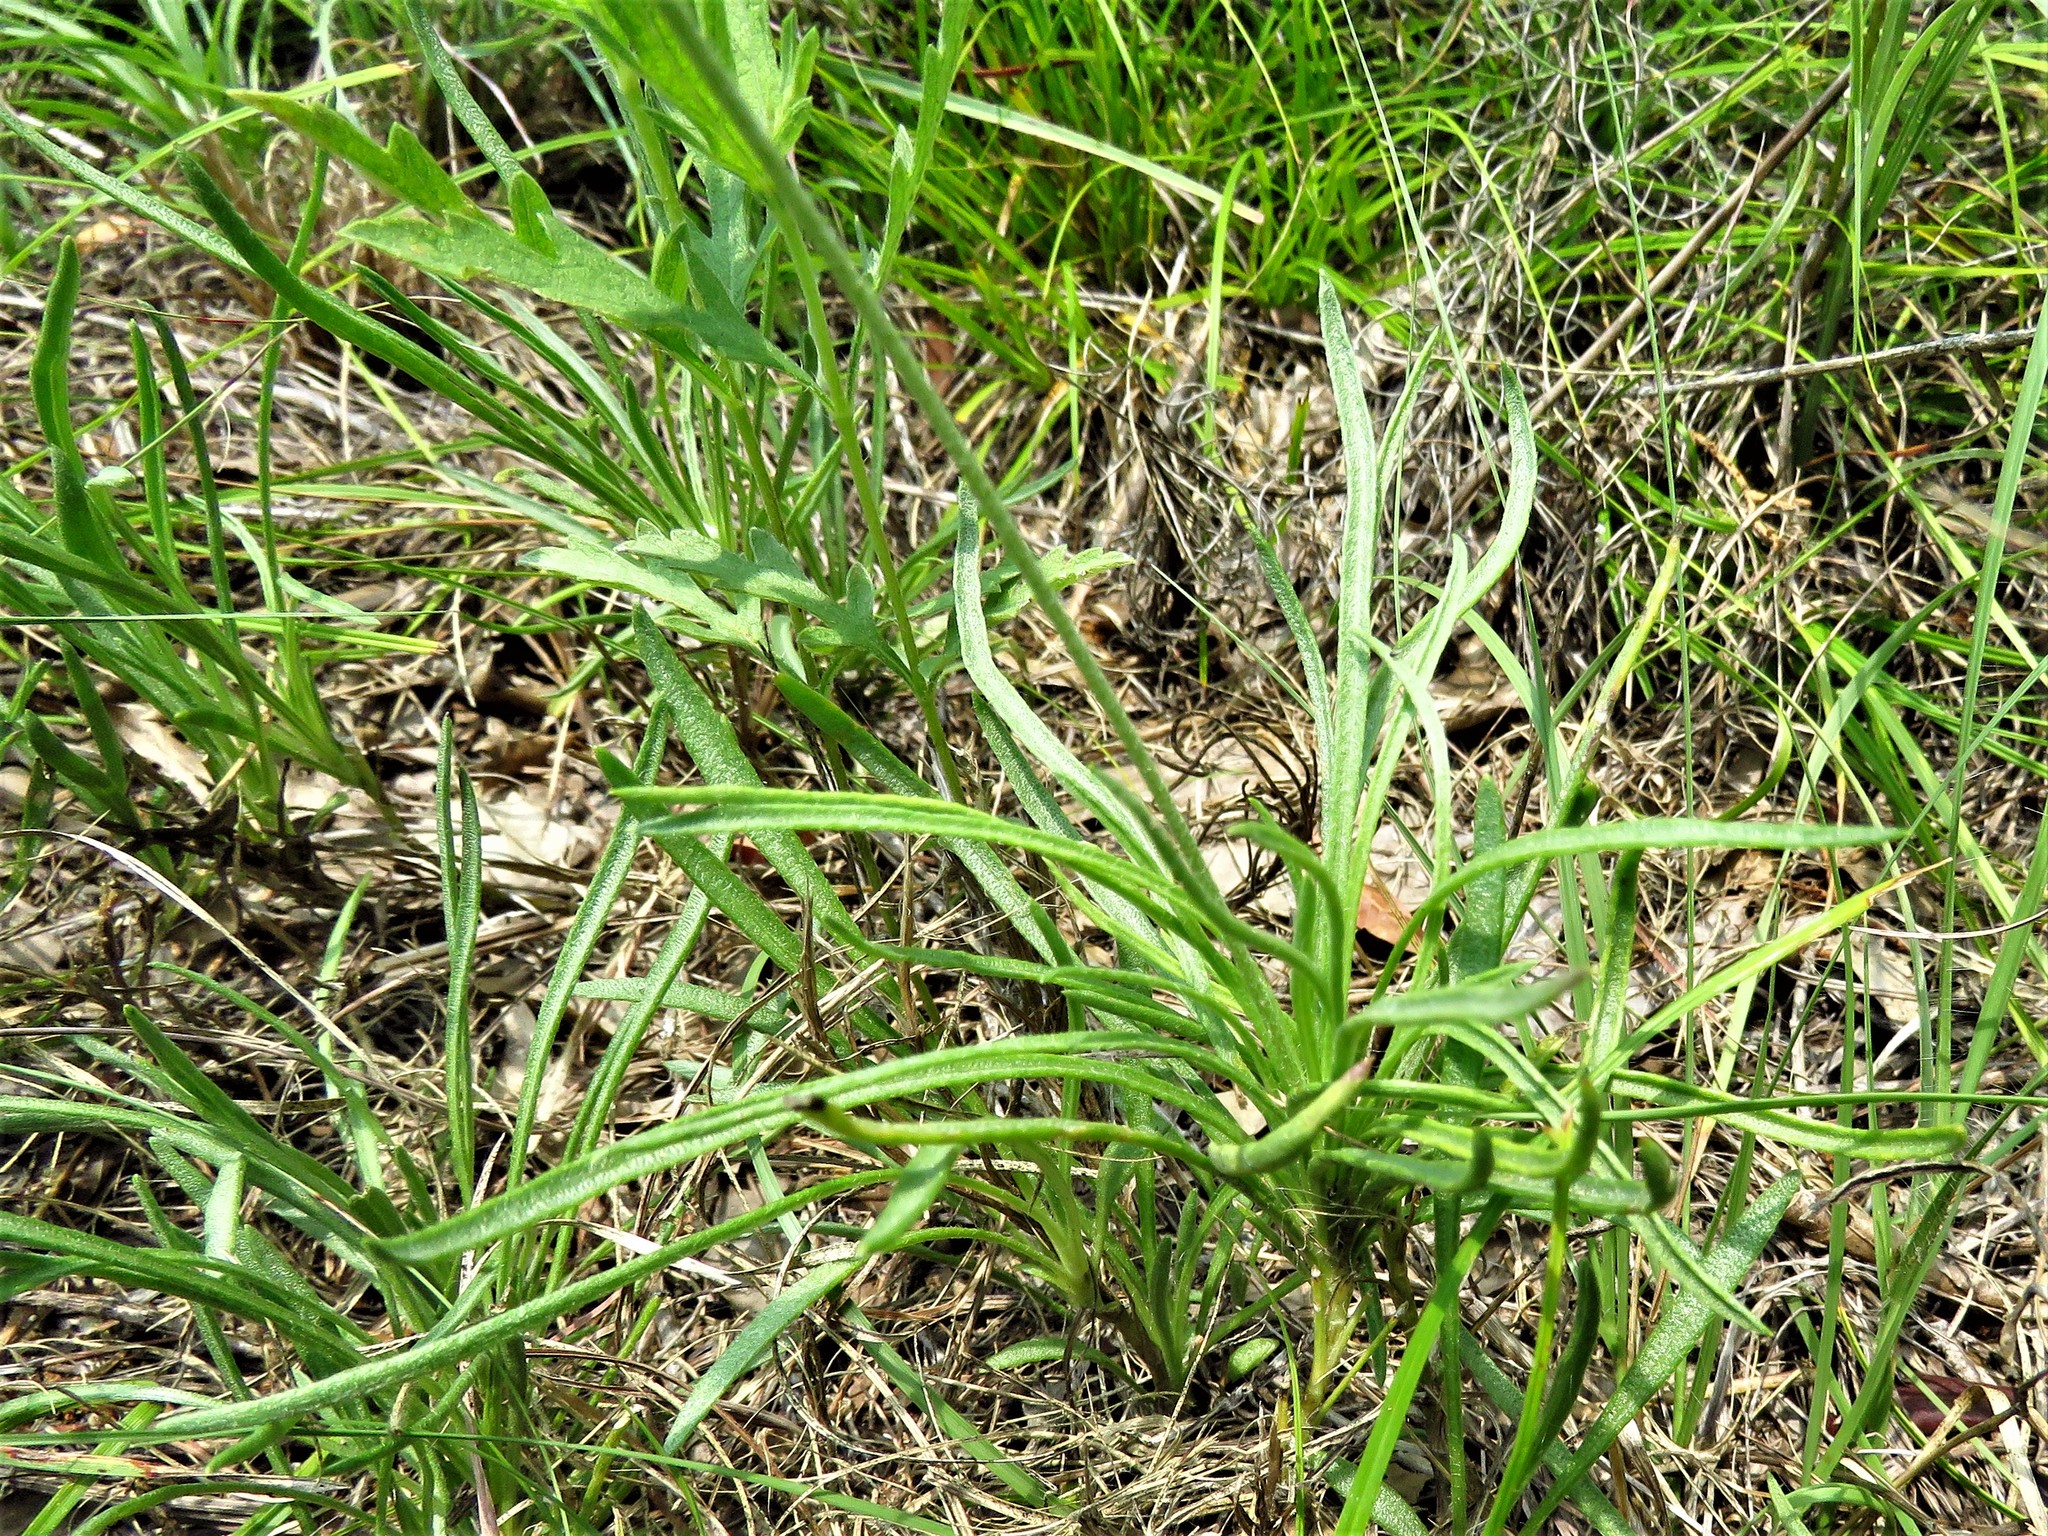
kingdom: Plantae
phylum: Tracheophyta
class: Magnoliopsida
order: Asterales
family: Asteraceae
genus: Tetraneuris
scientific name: Tetraneuris scaposa
